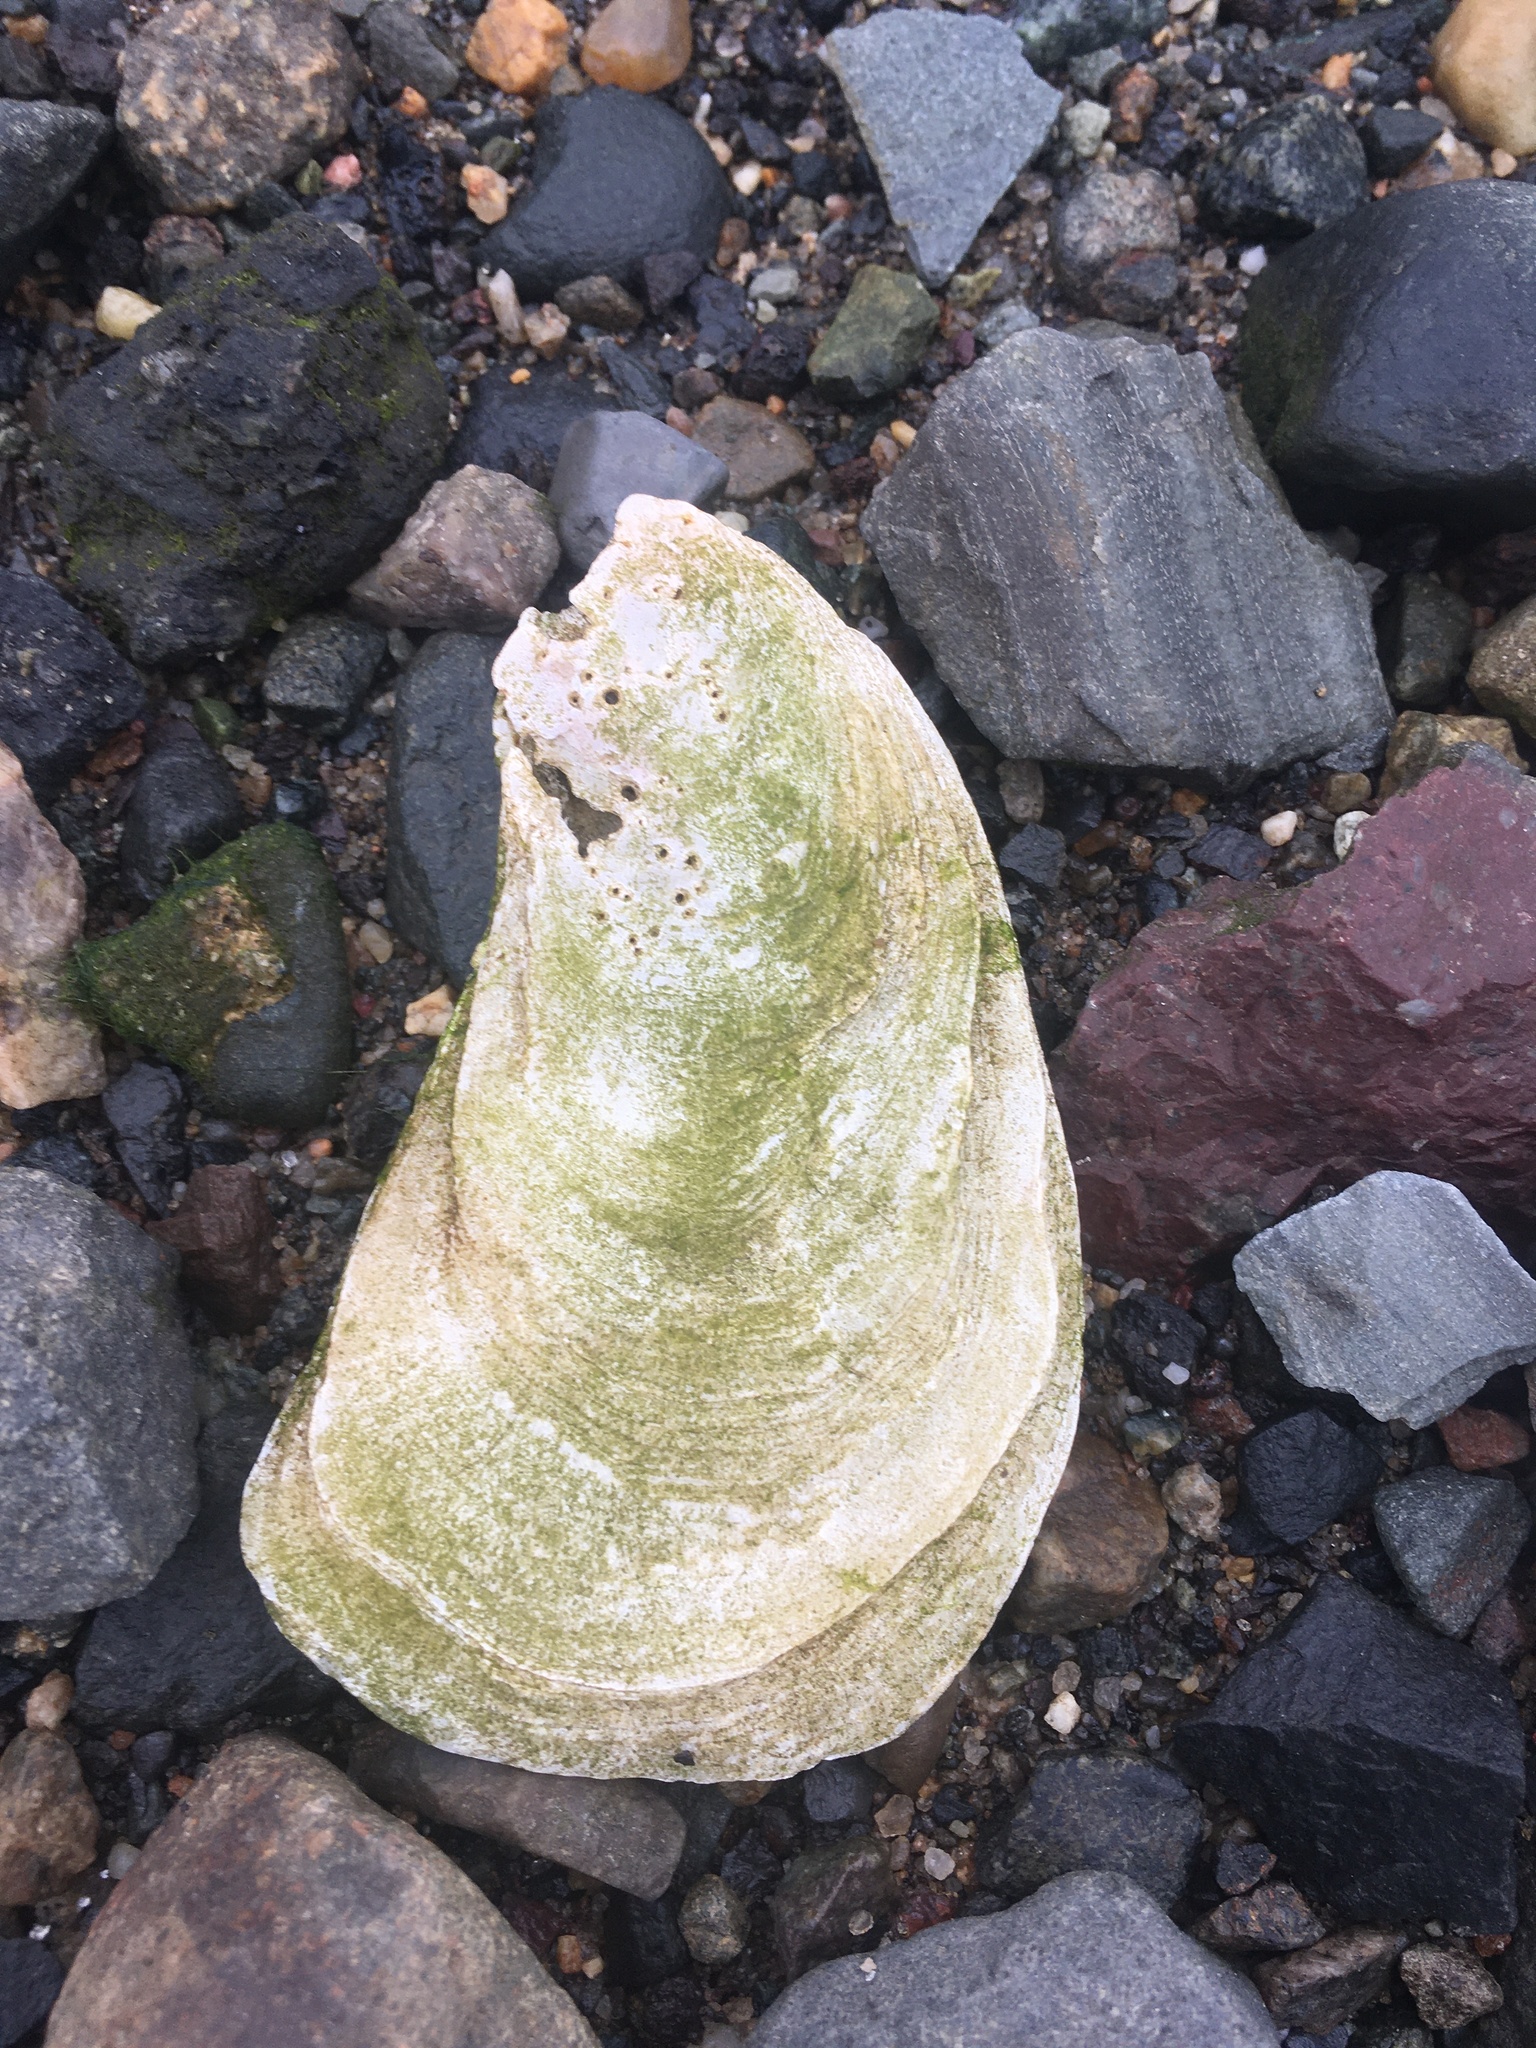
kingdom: Animalia
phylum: Mollusca
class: Bivalvia
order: Ostreida
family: Ostreidae
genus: Crassostrea
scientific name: Crassostrea virginica
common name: American oyster
